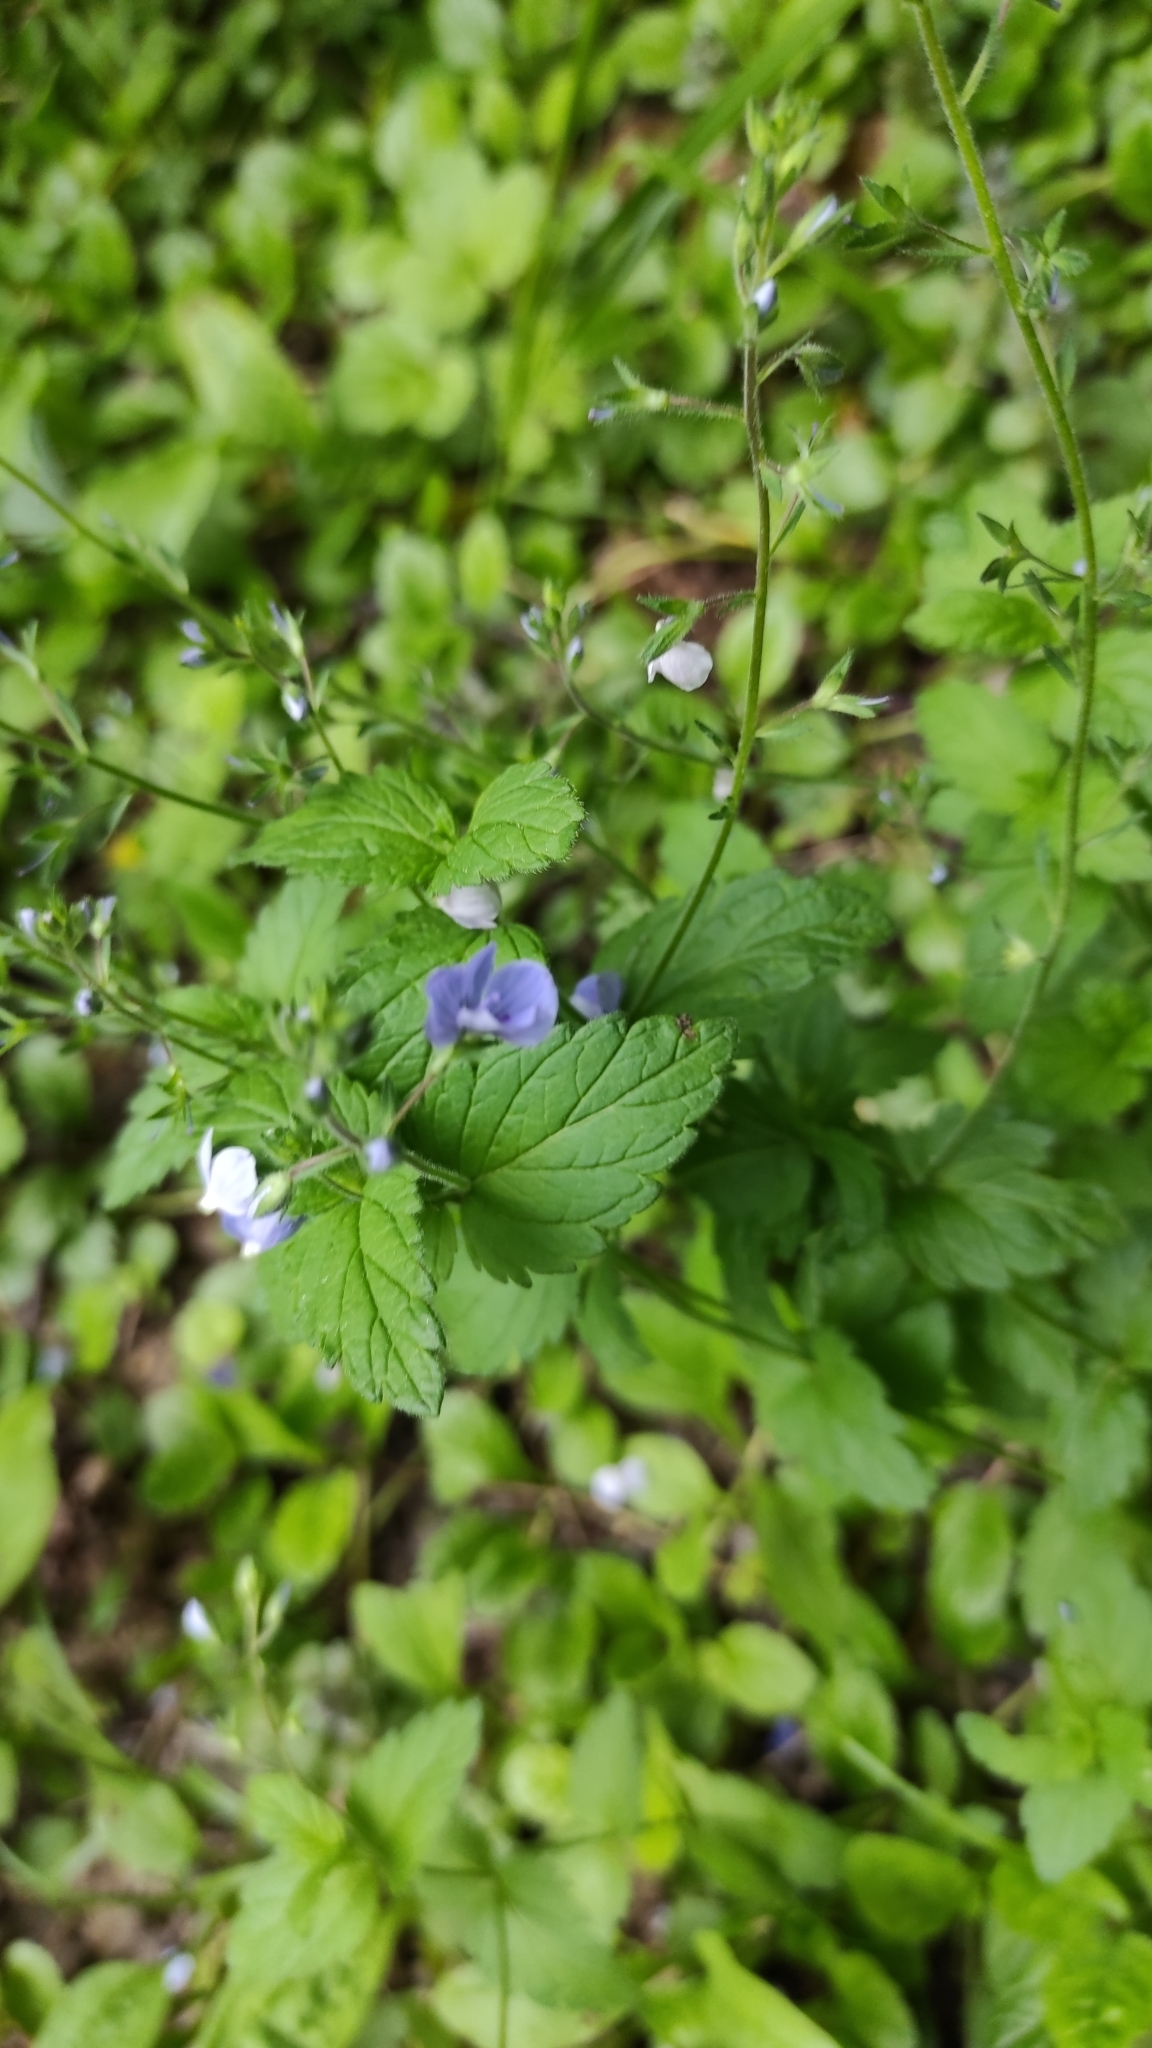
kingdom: Plantae
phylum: Tracheophyta
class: Magnoliopsida
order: Lamiales
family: Plantaginaceae
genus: Veronica
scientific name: Veronica chamaedrys
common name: Germander speedwell
